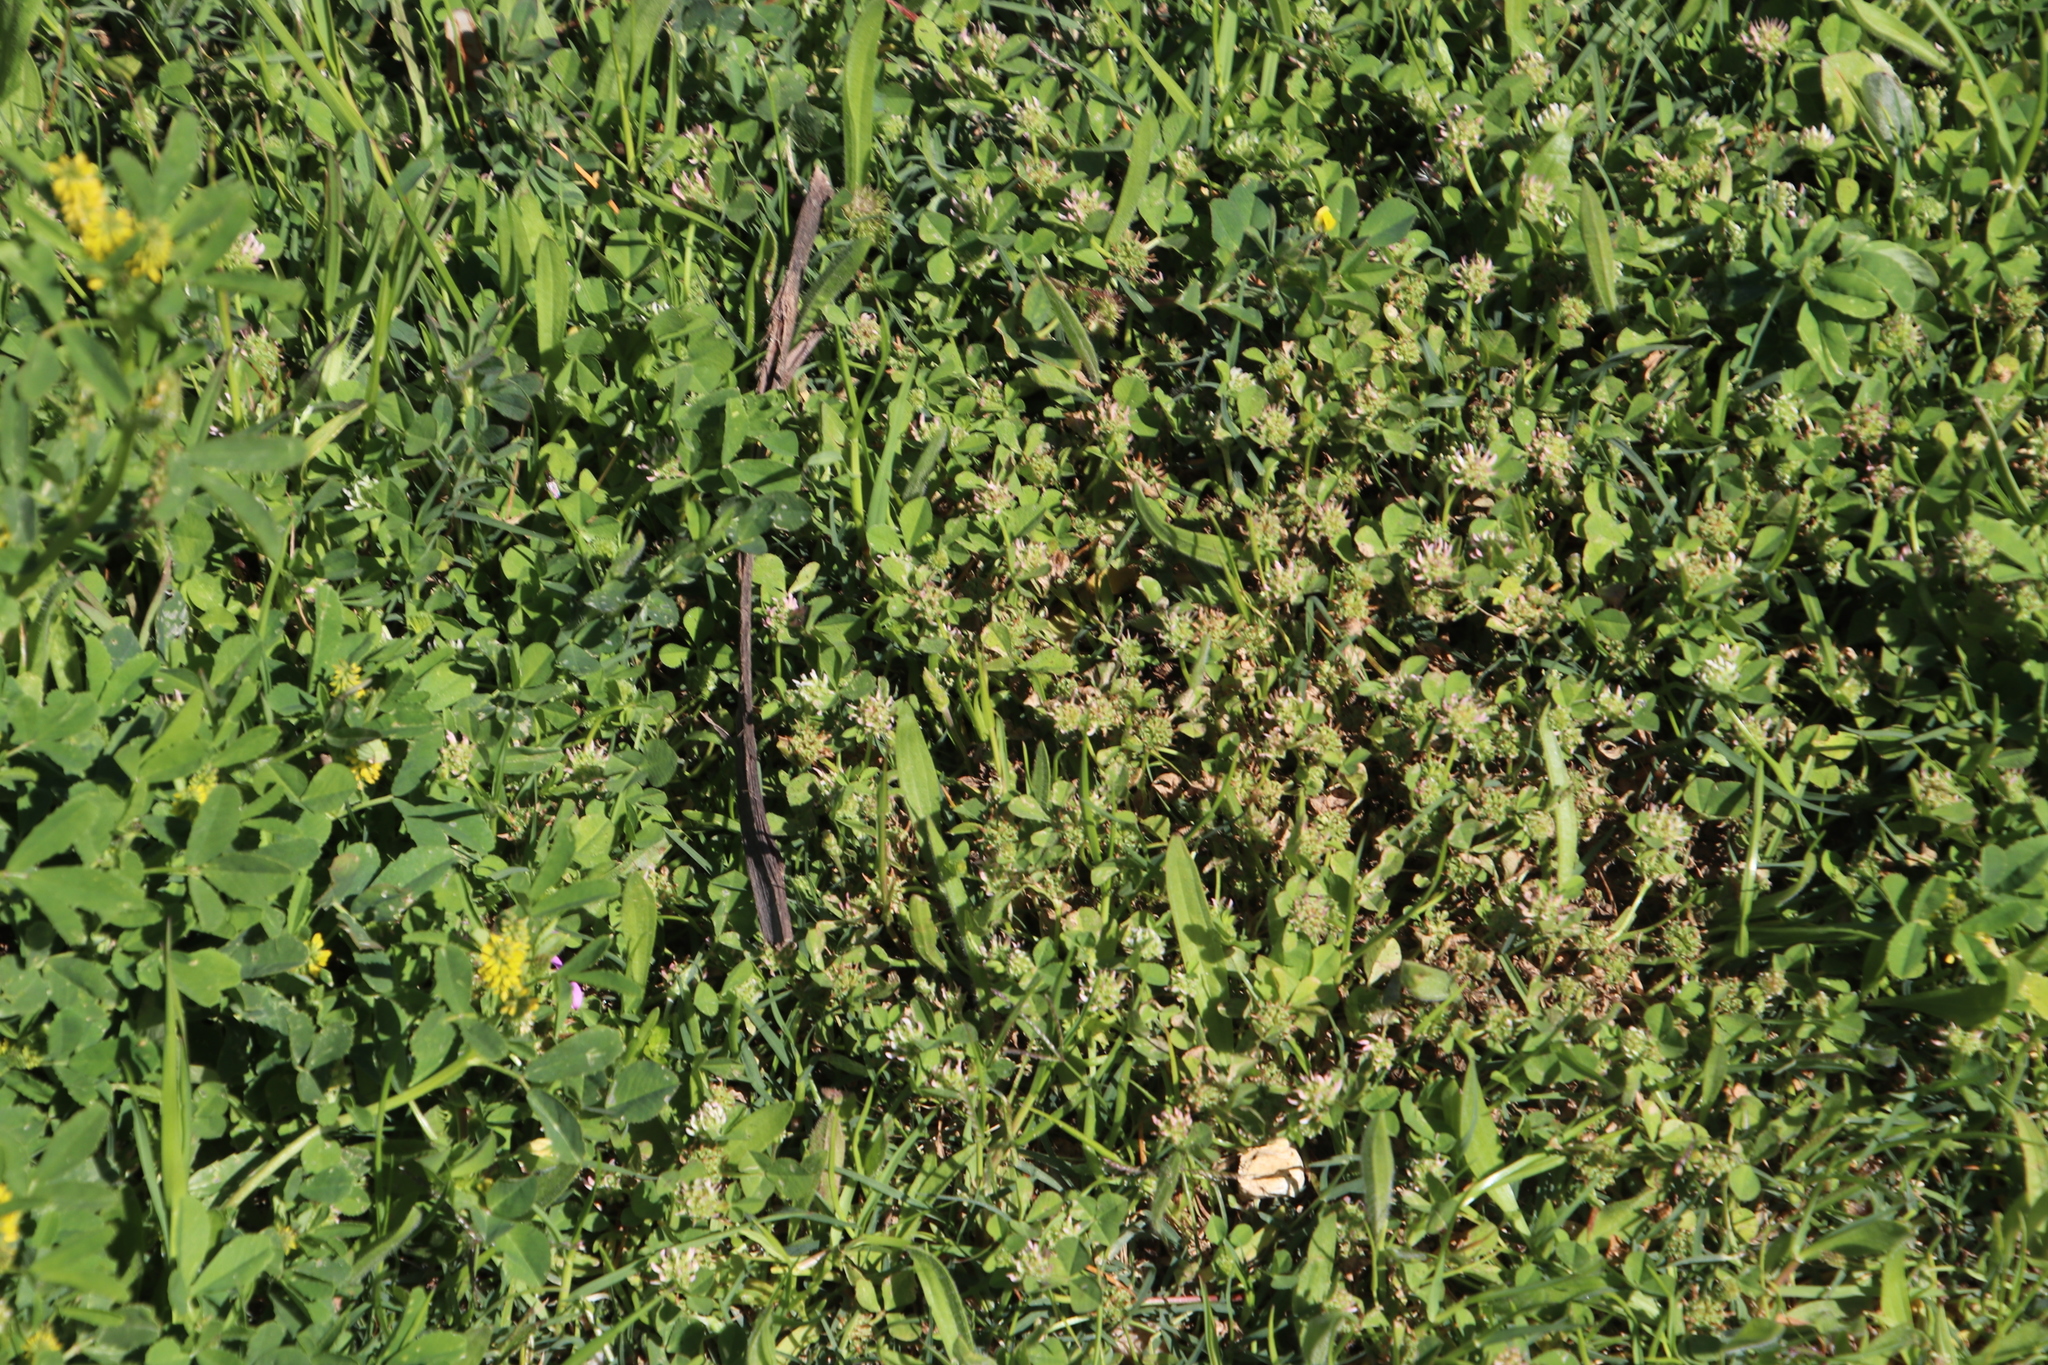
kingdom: Plantae
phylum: Tracheophyta
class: Magnoliopsida
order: Fabales
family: Fabaceae
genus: Trifolium
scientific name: Trifolium glomeratum
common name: Clustered clover
